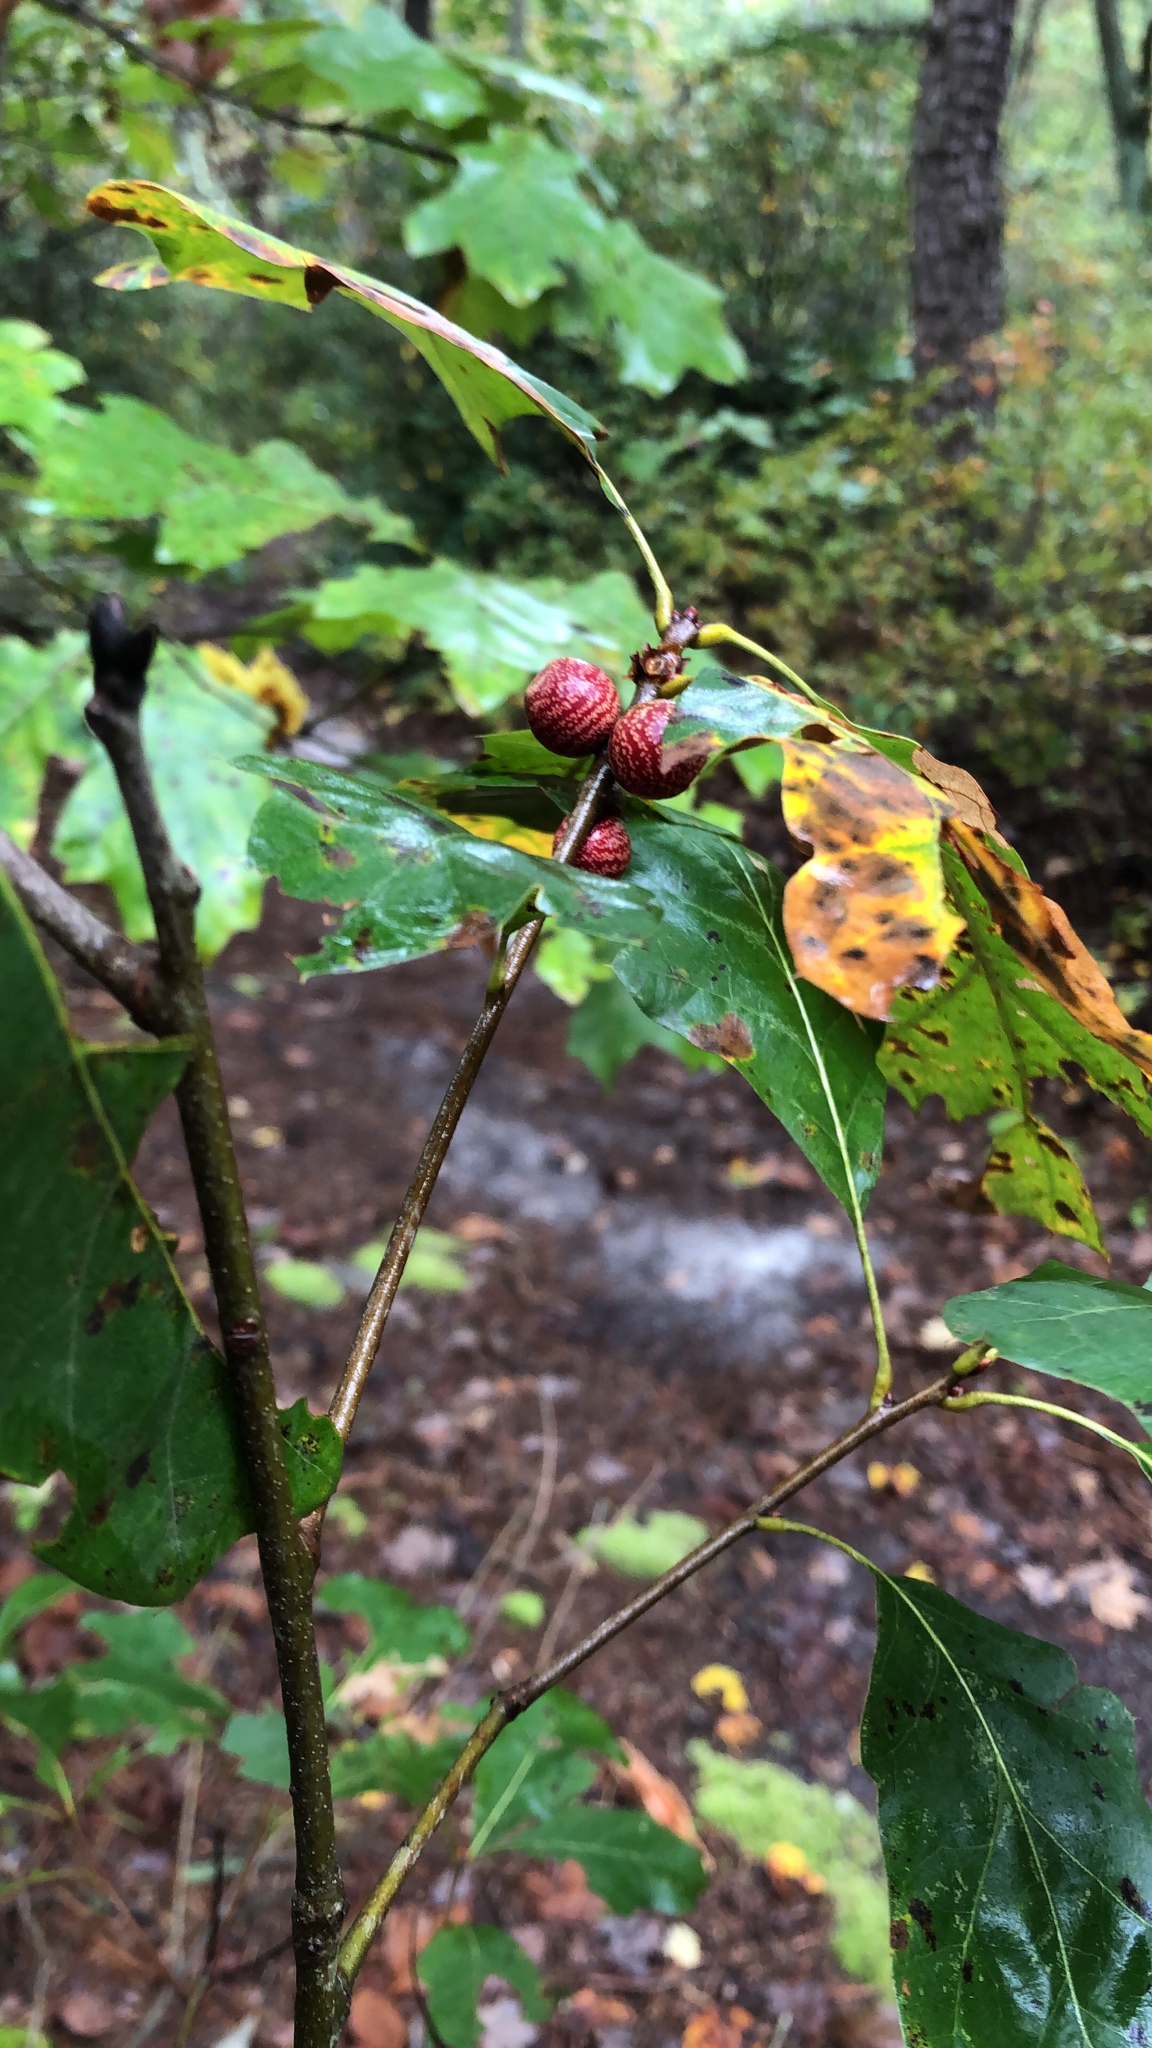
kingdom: Animalia
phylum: Arthropoda
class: Insecta
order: Hymenoptera
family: Cynipidae
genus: Kokkocynips
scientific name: Kokkocynips imbricariae
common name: Banded bullet gall wasp
